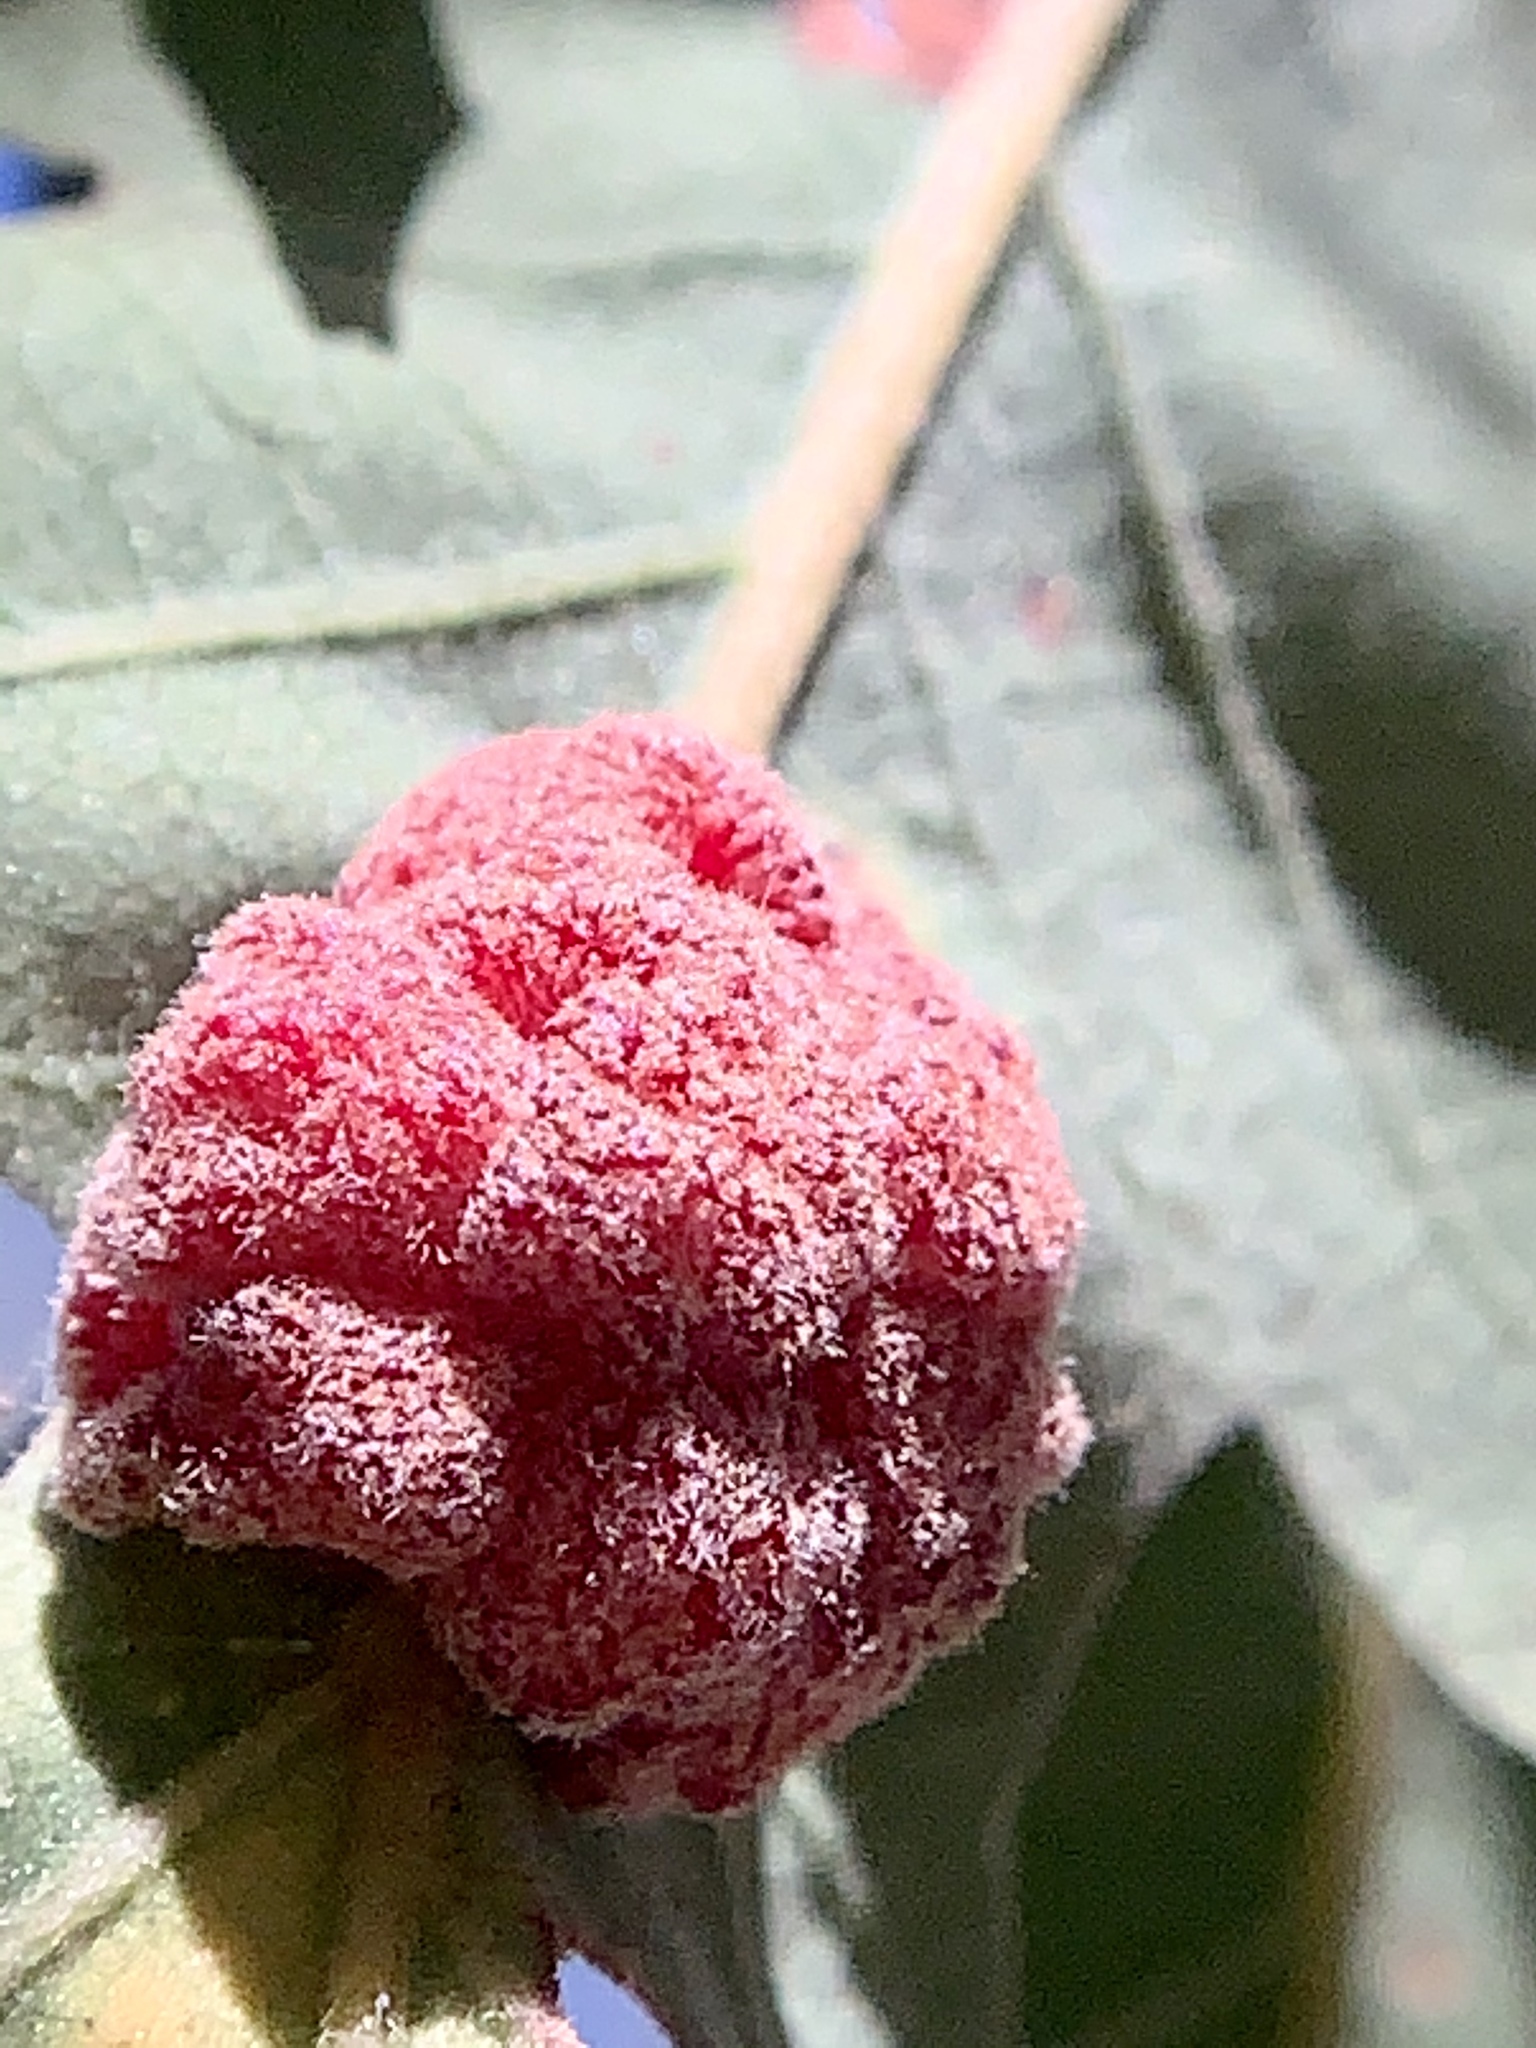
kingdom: Animalia
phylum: Arthropoda
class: Insecta
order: Hymenoptera
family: Cynipidae
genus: Andricus
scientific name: Andricus
